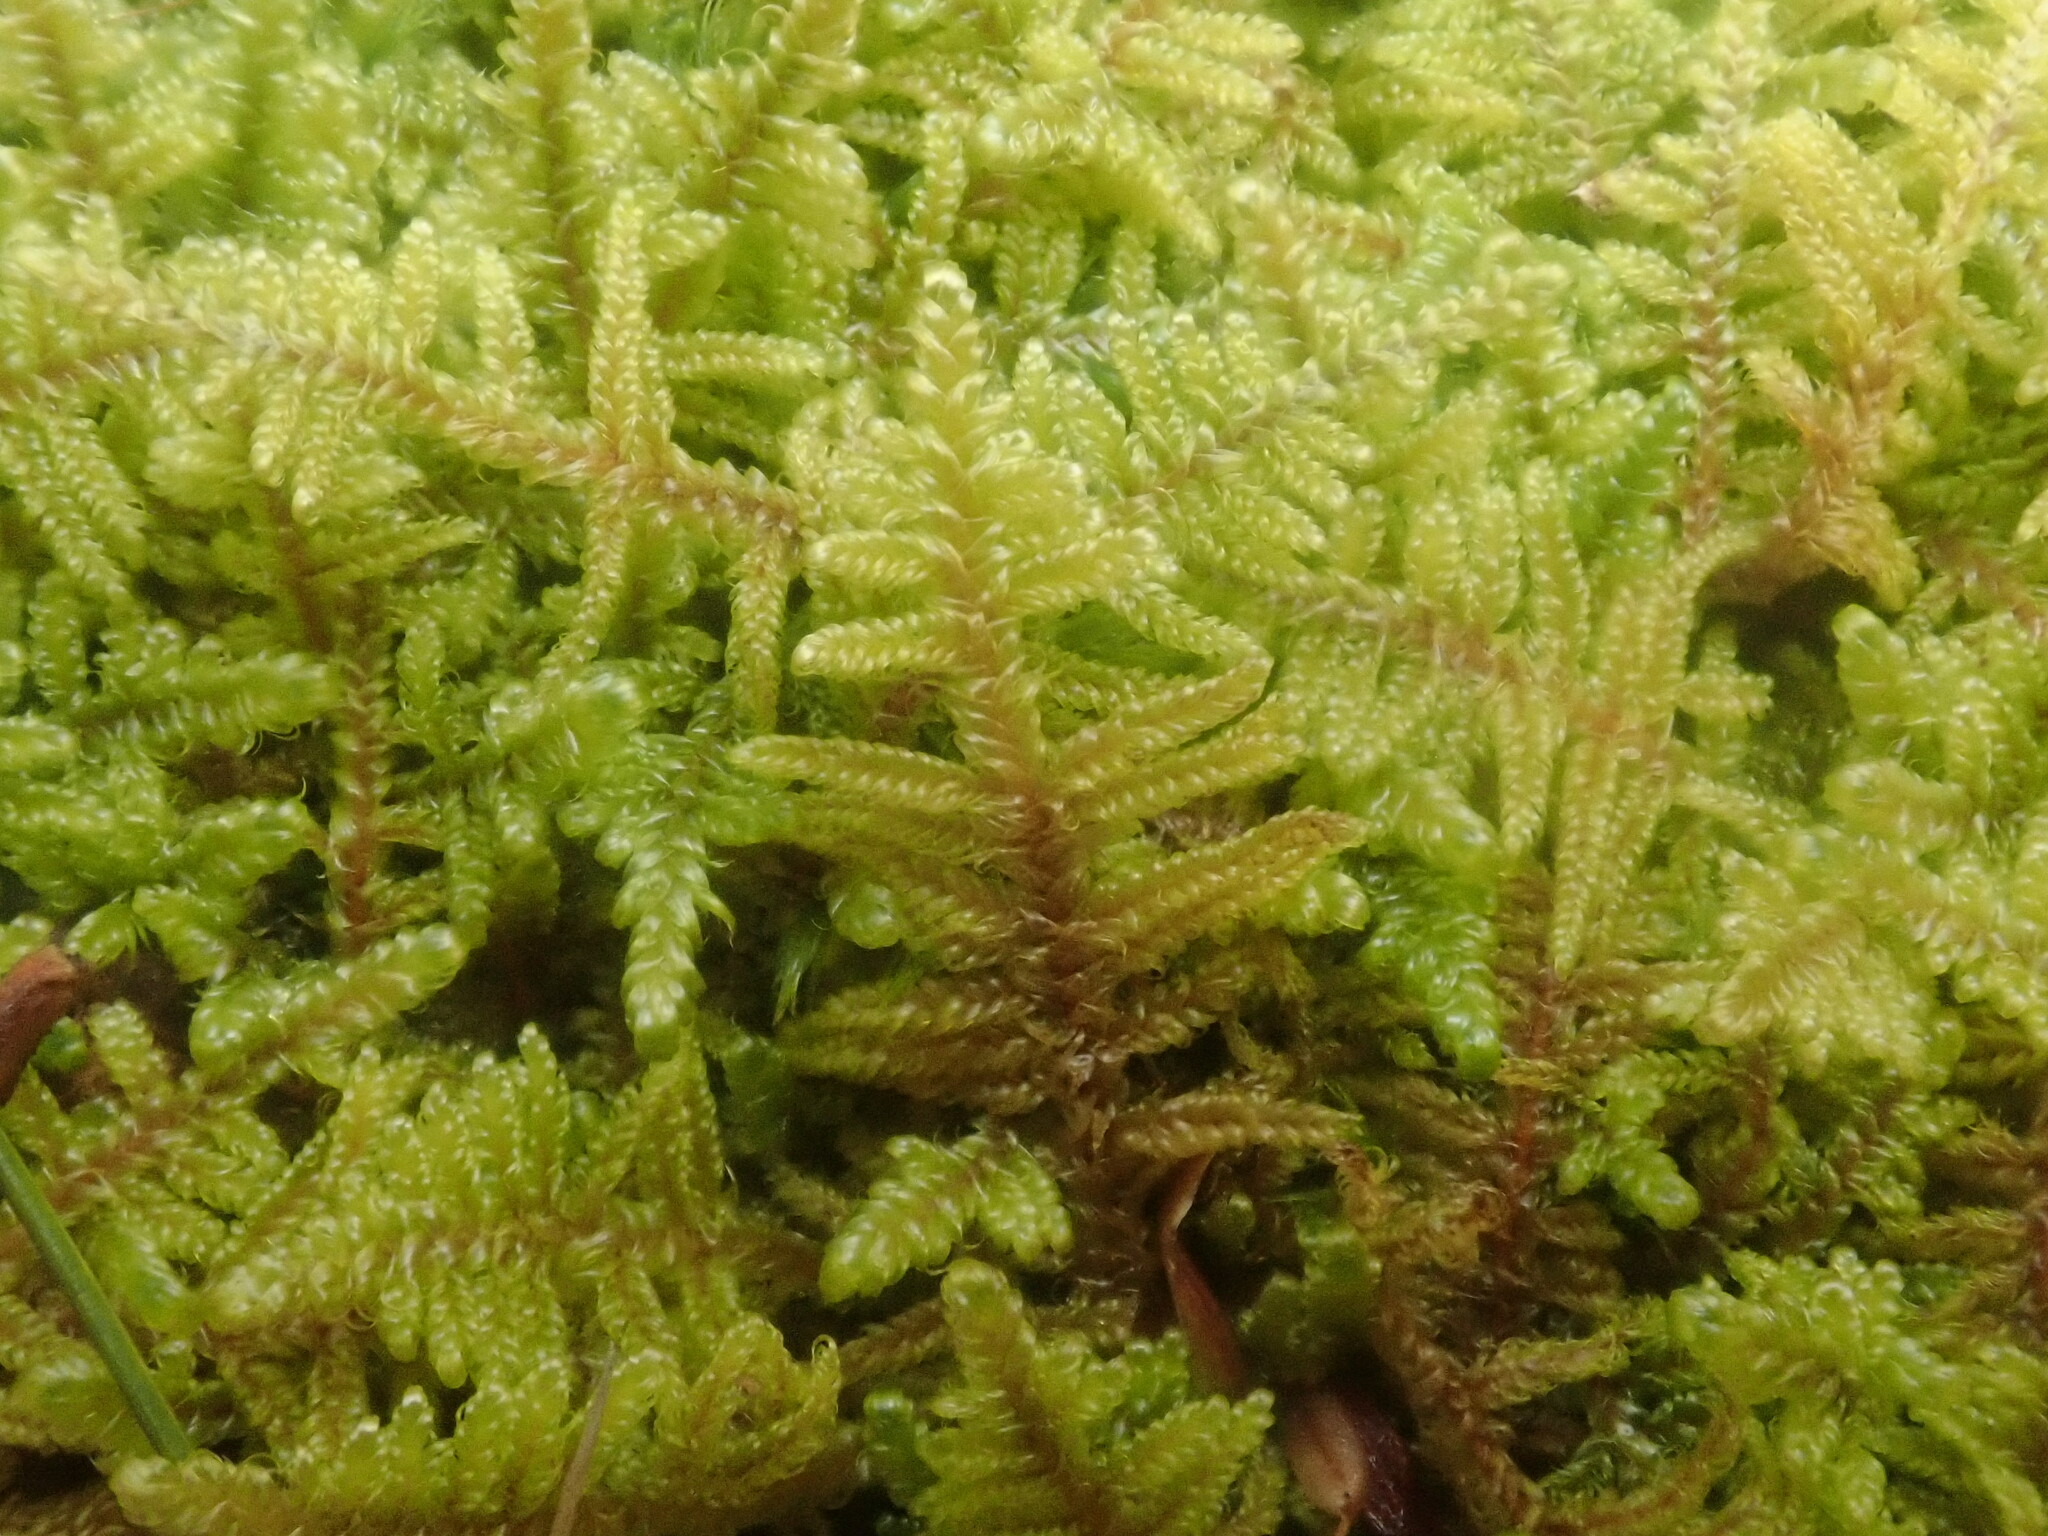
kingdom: Plantae
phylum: Bryophyta
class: Bryopsida
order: Hypnales
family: Callicladiaceae
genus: Callicladium
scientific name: Callicladium imponens
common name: Brocade moss
